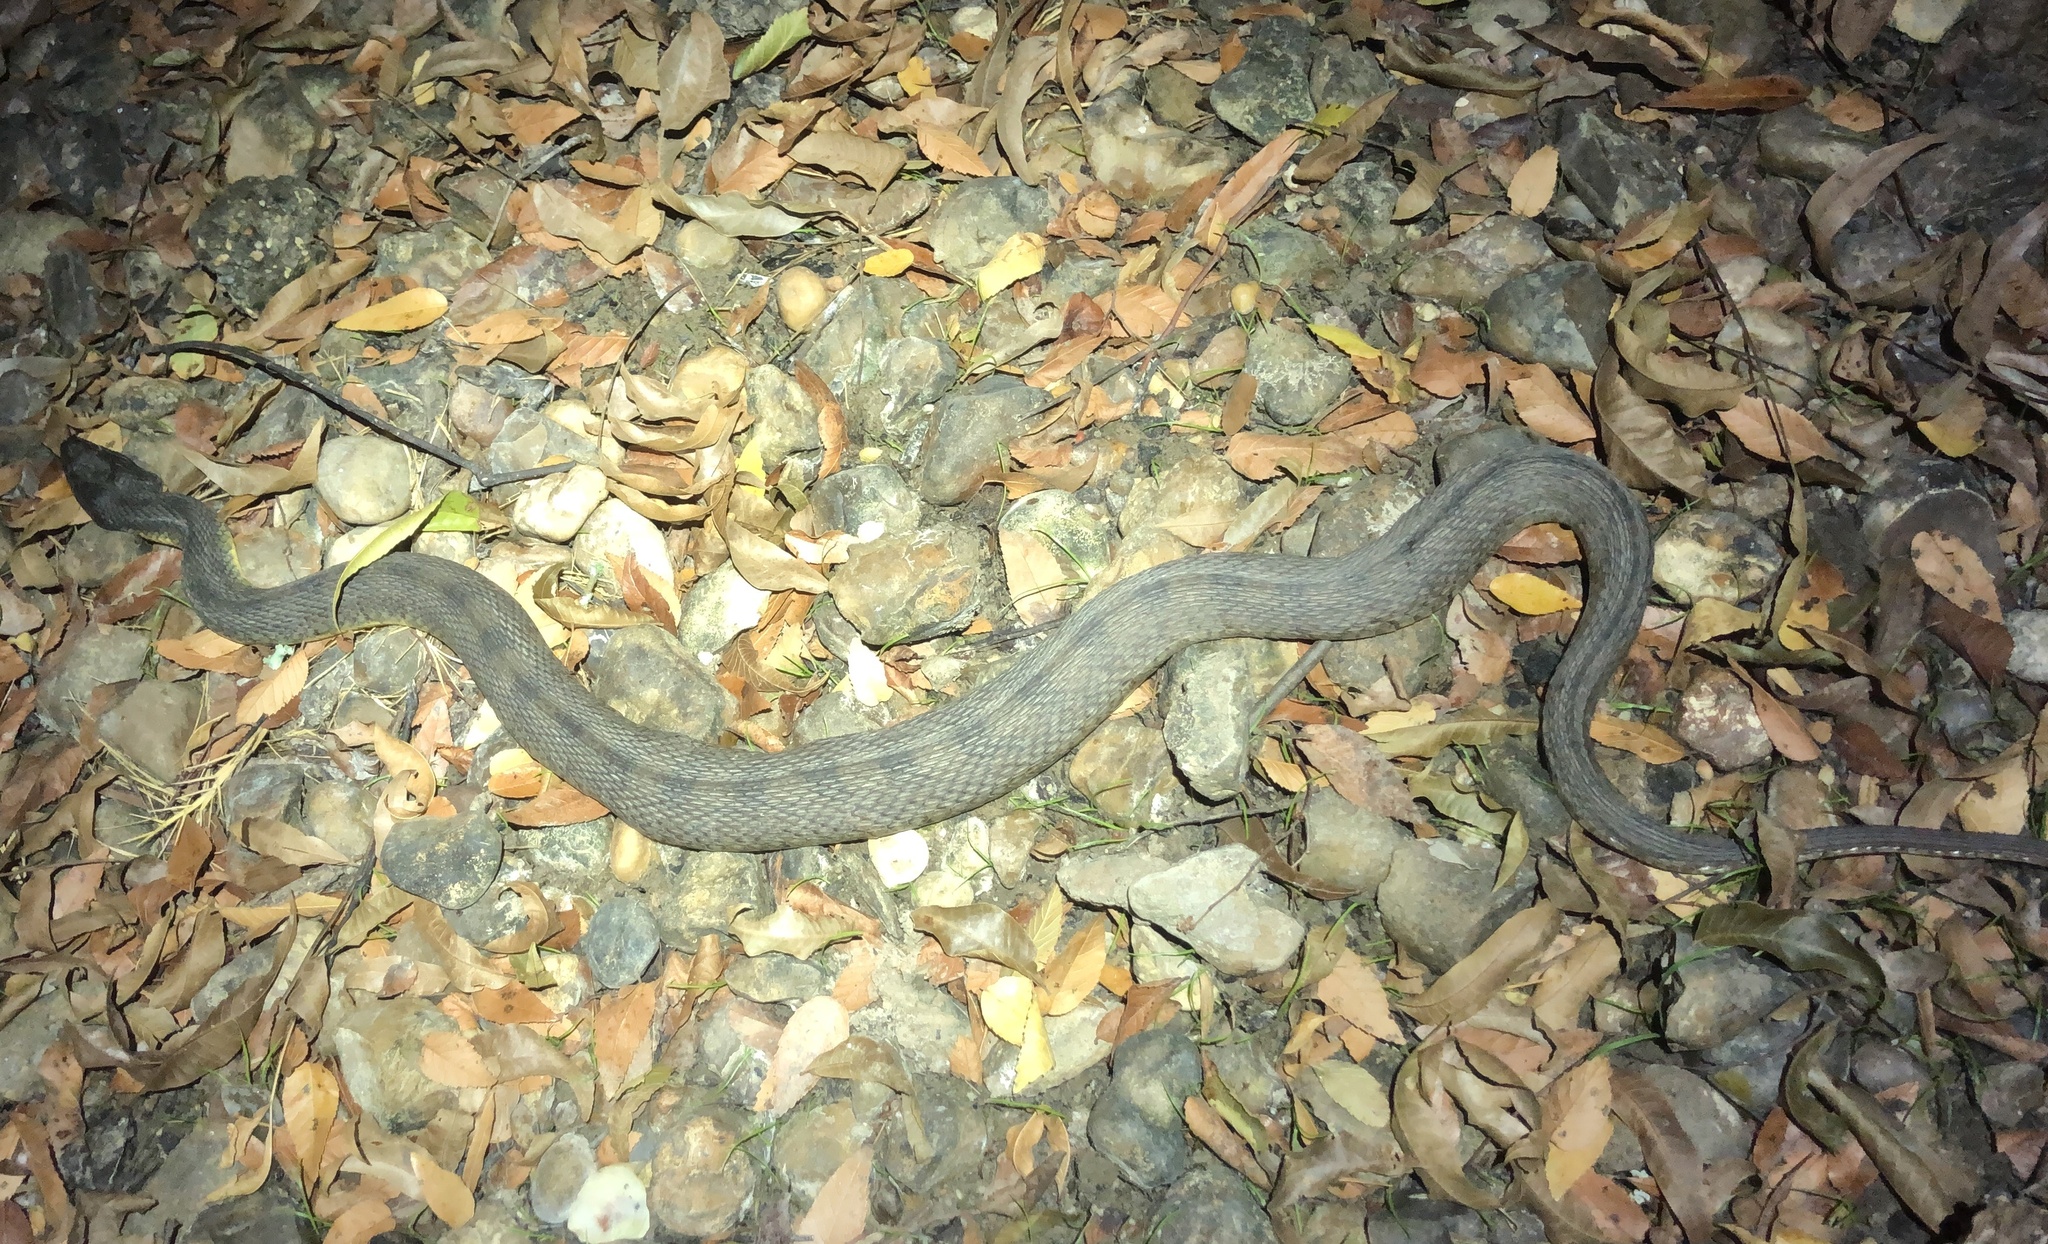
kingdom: Animalia
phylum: Chordata
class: Squamata
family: Colubridae
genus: Nerodia
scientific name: Nerodia rhombifer
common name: Diamondback water snake
